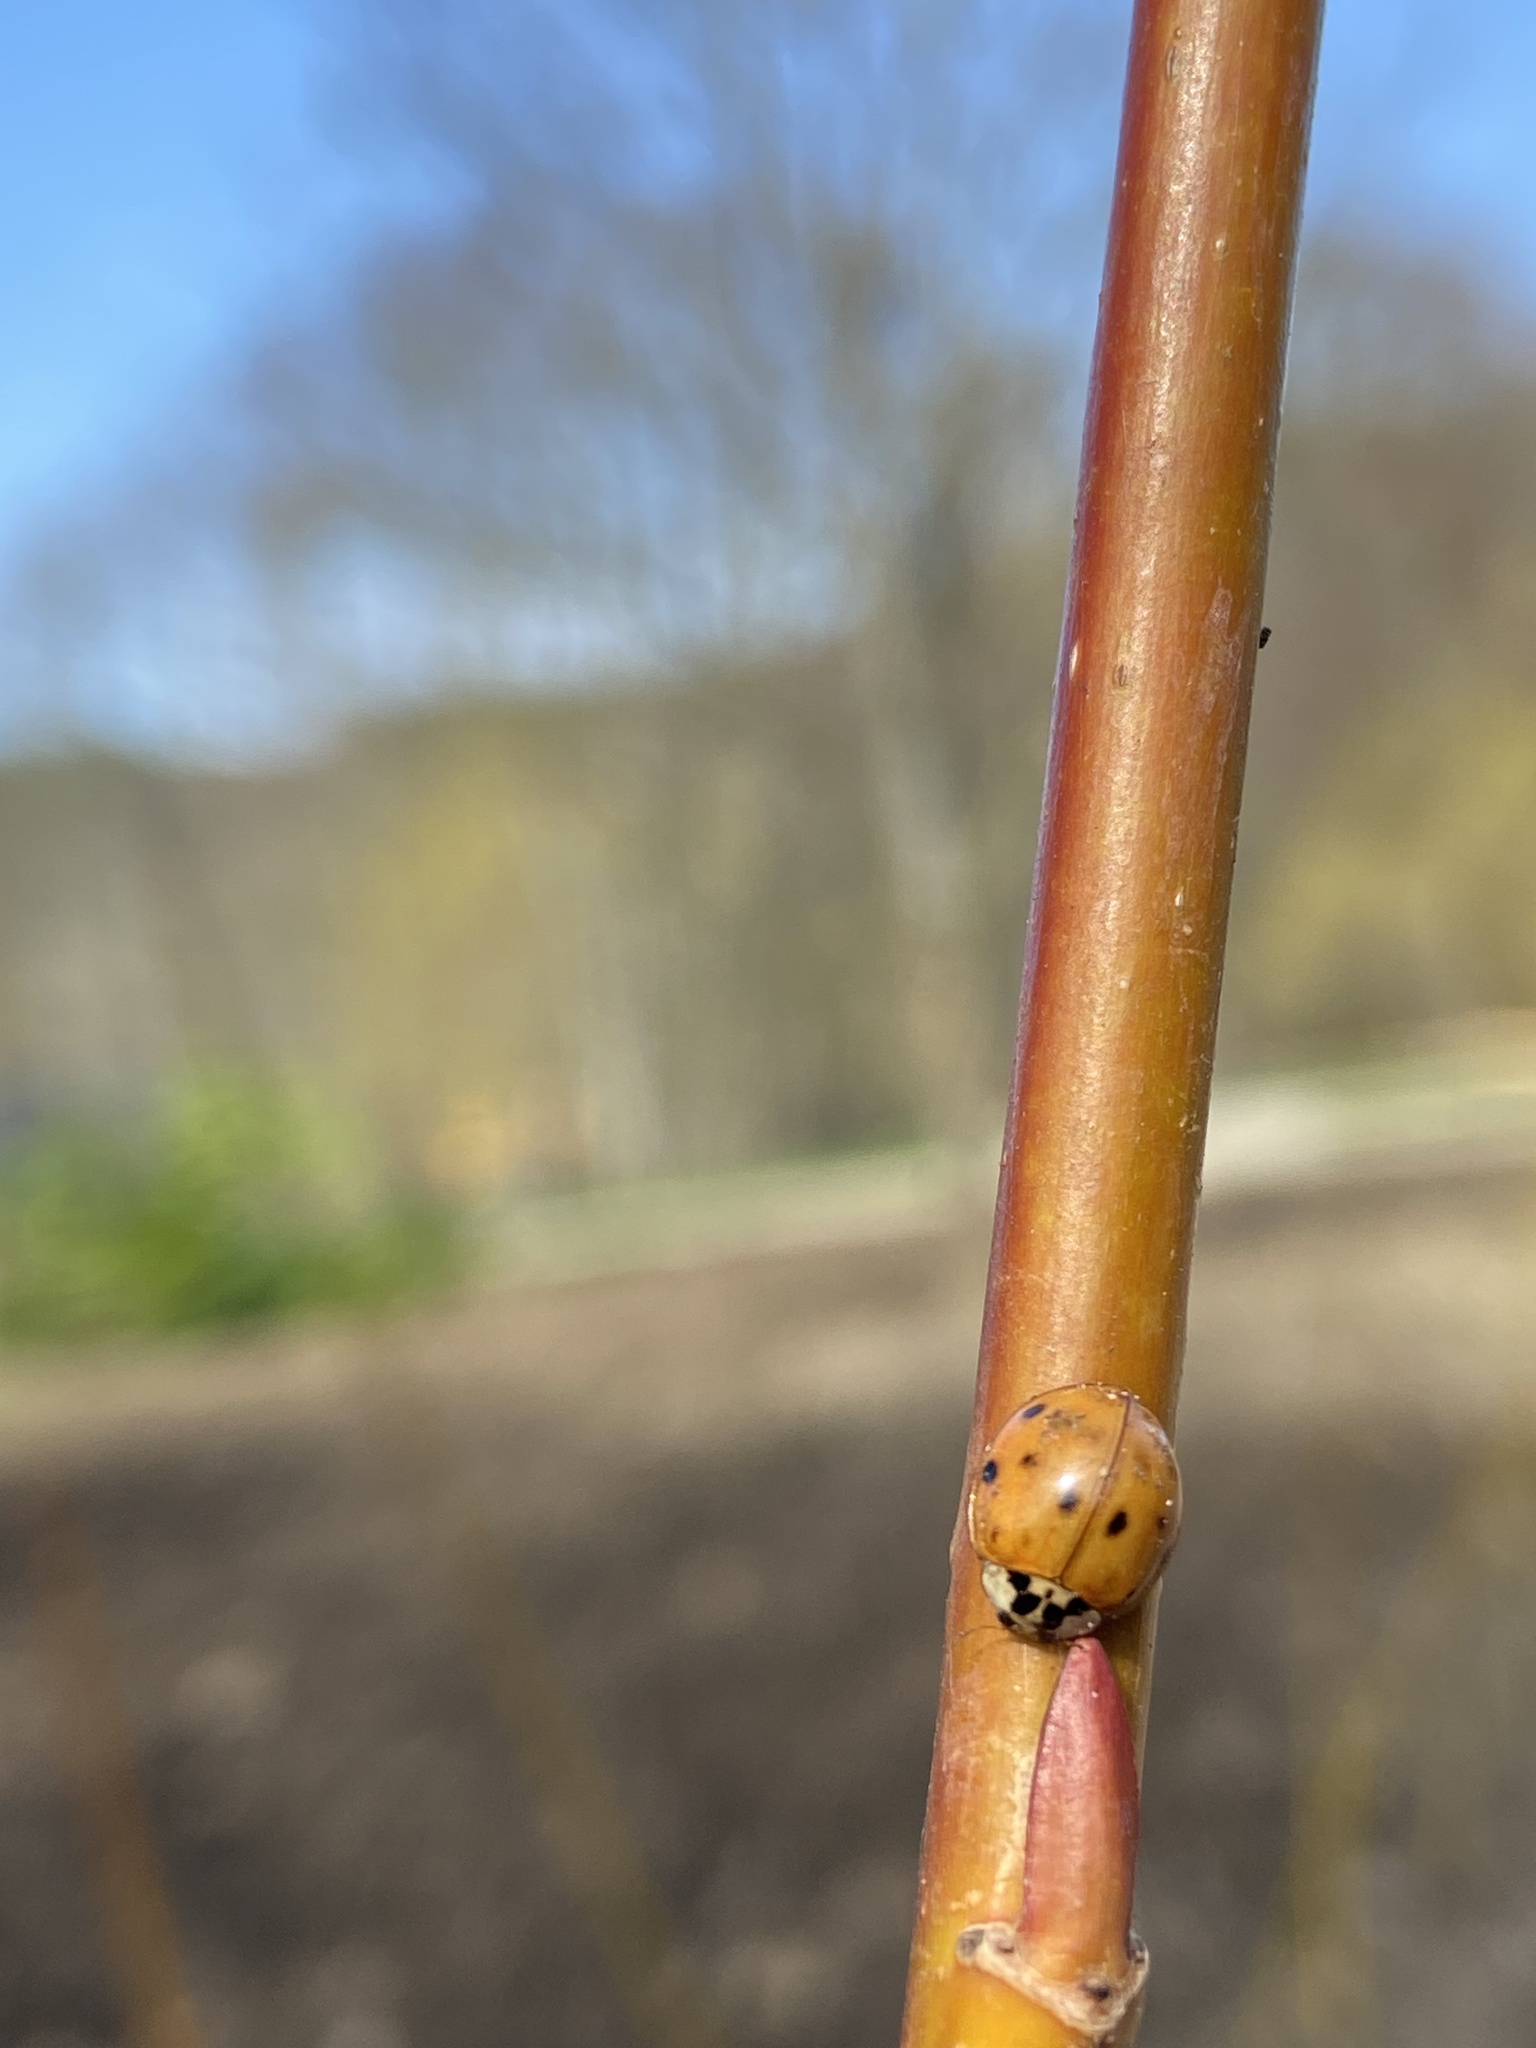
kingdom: Animalia
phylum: Arthropoda
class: Insecta
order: Coleoptera
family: Coccinellidae
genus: Harmonia
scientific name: Harmonia axyridis
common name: Harlequin ladybird
